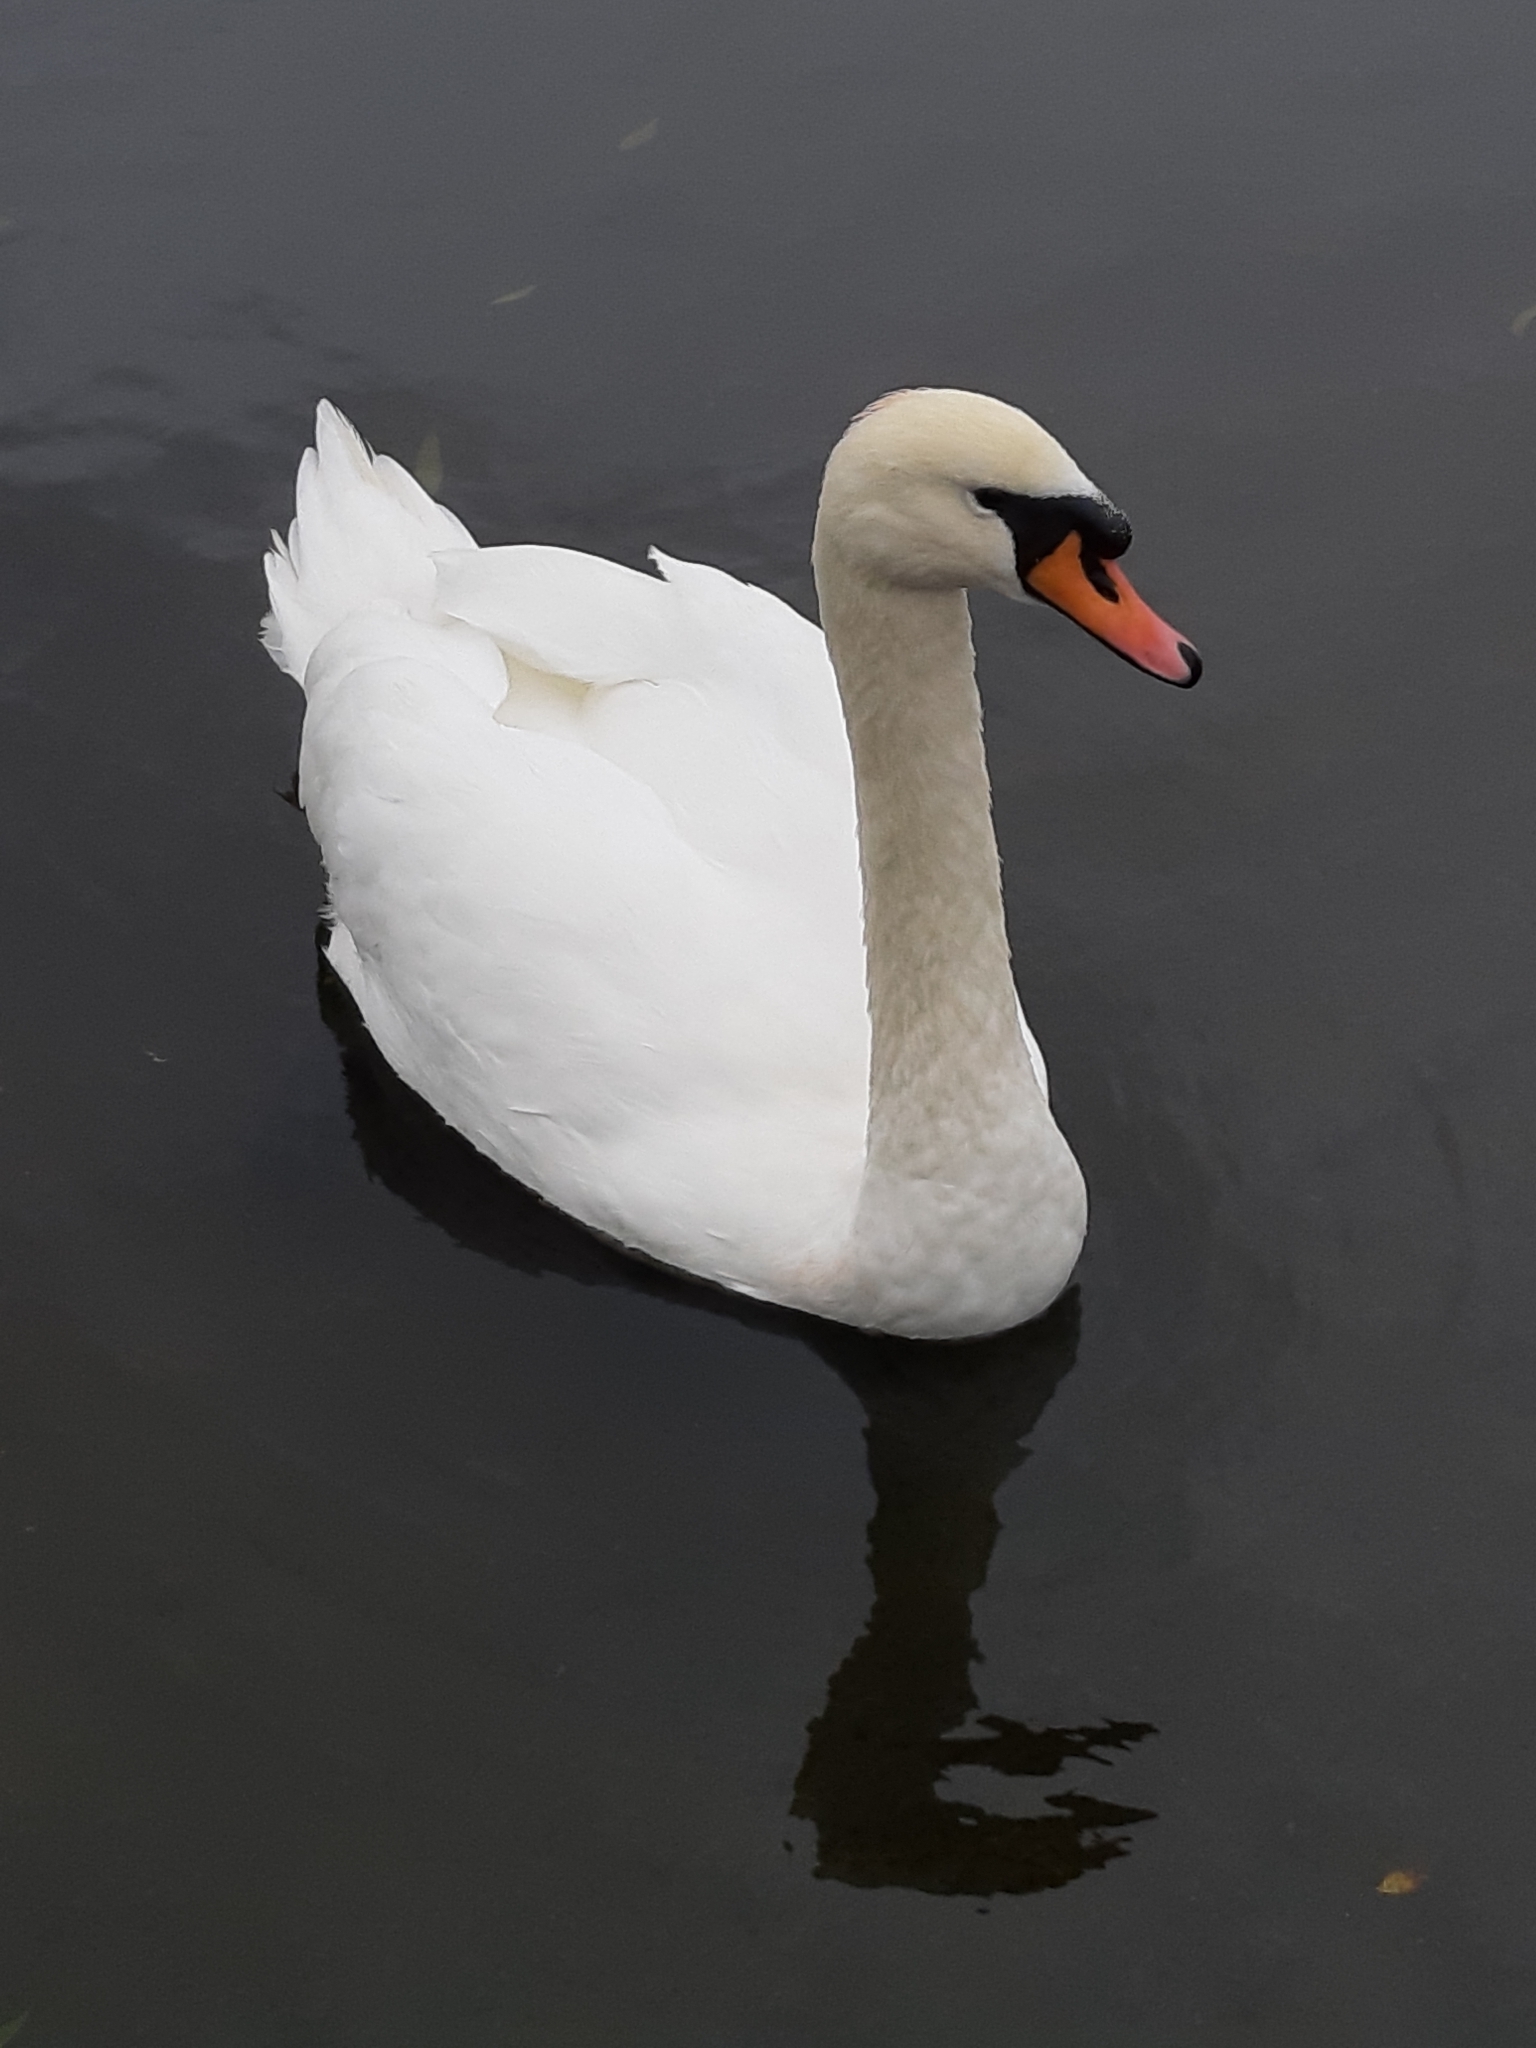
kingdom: Animalia
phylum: Chordata
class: Aves
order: Anseriformes
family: Anatidae
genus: Cygnus
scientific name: Cygnus olor
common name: Mute swan
